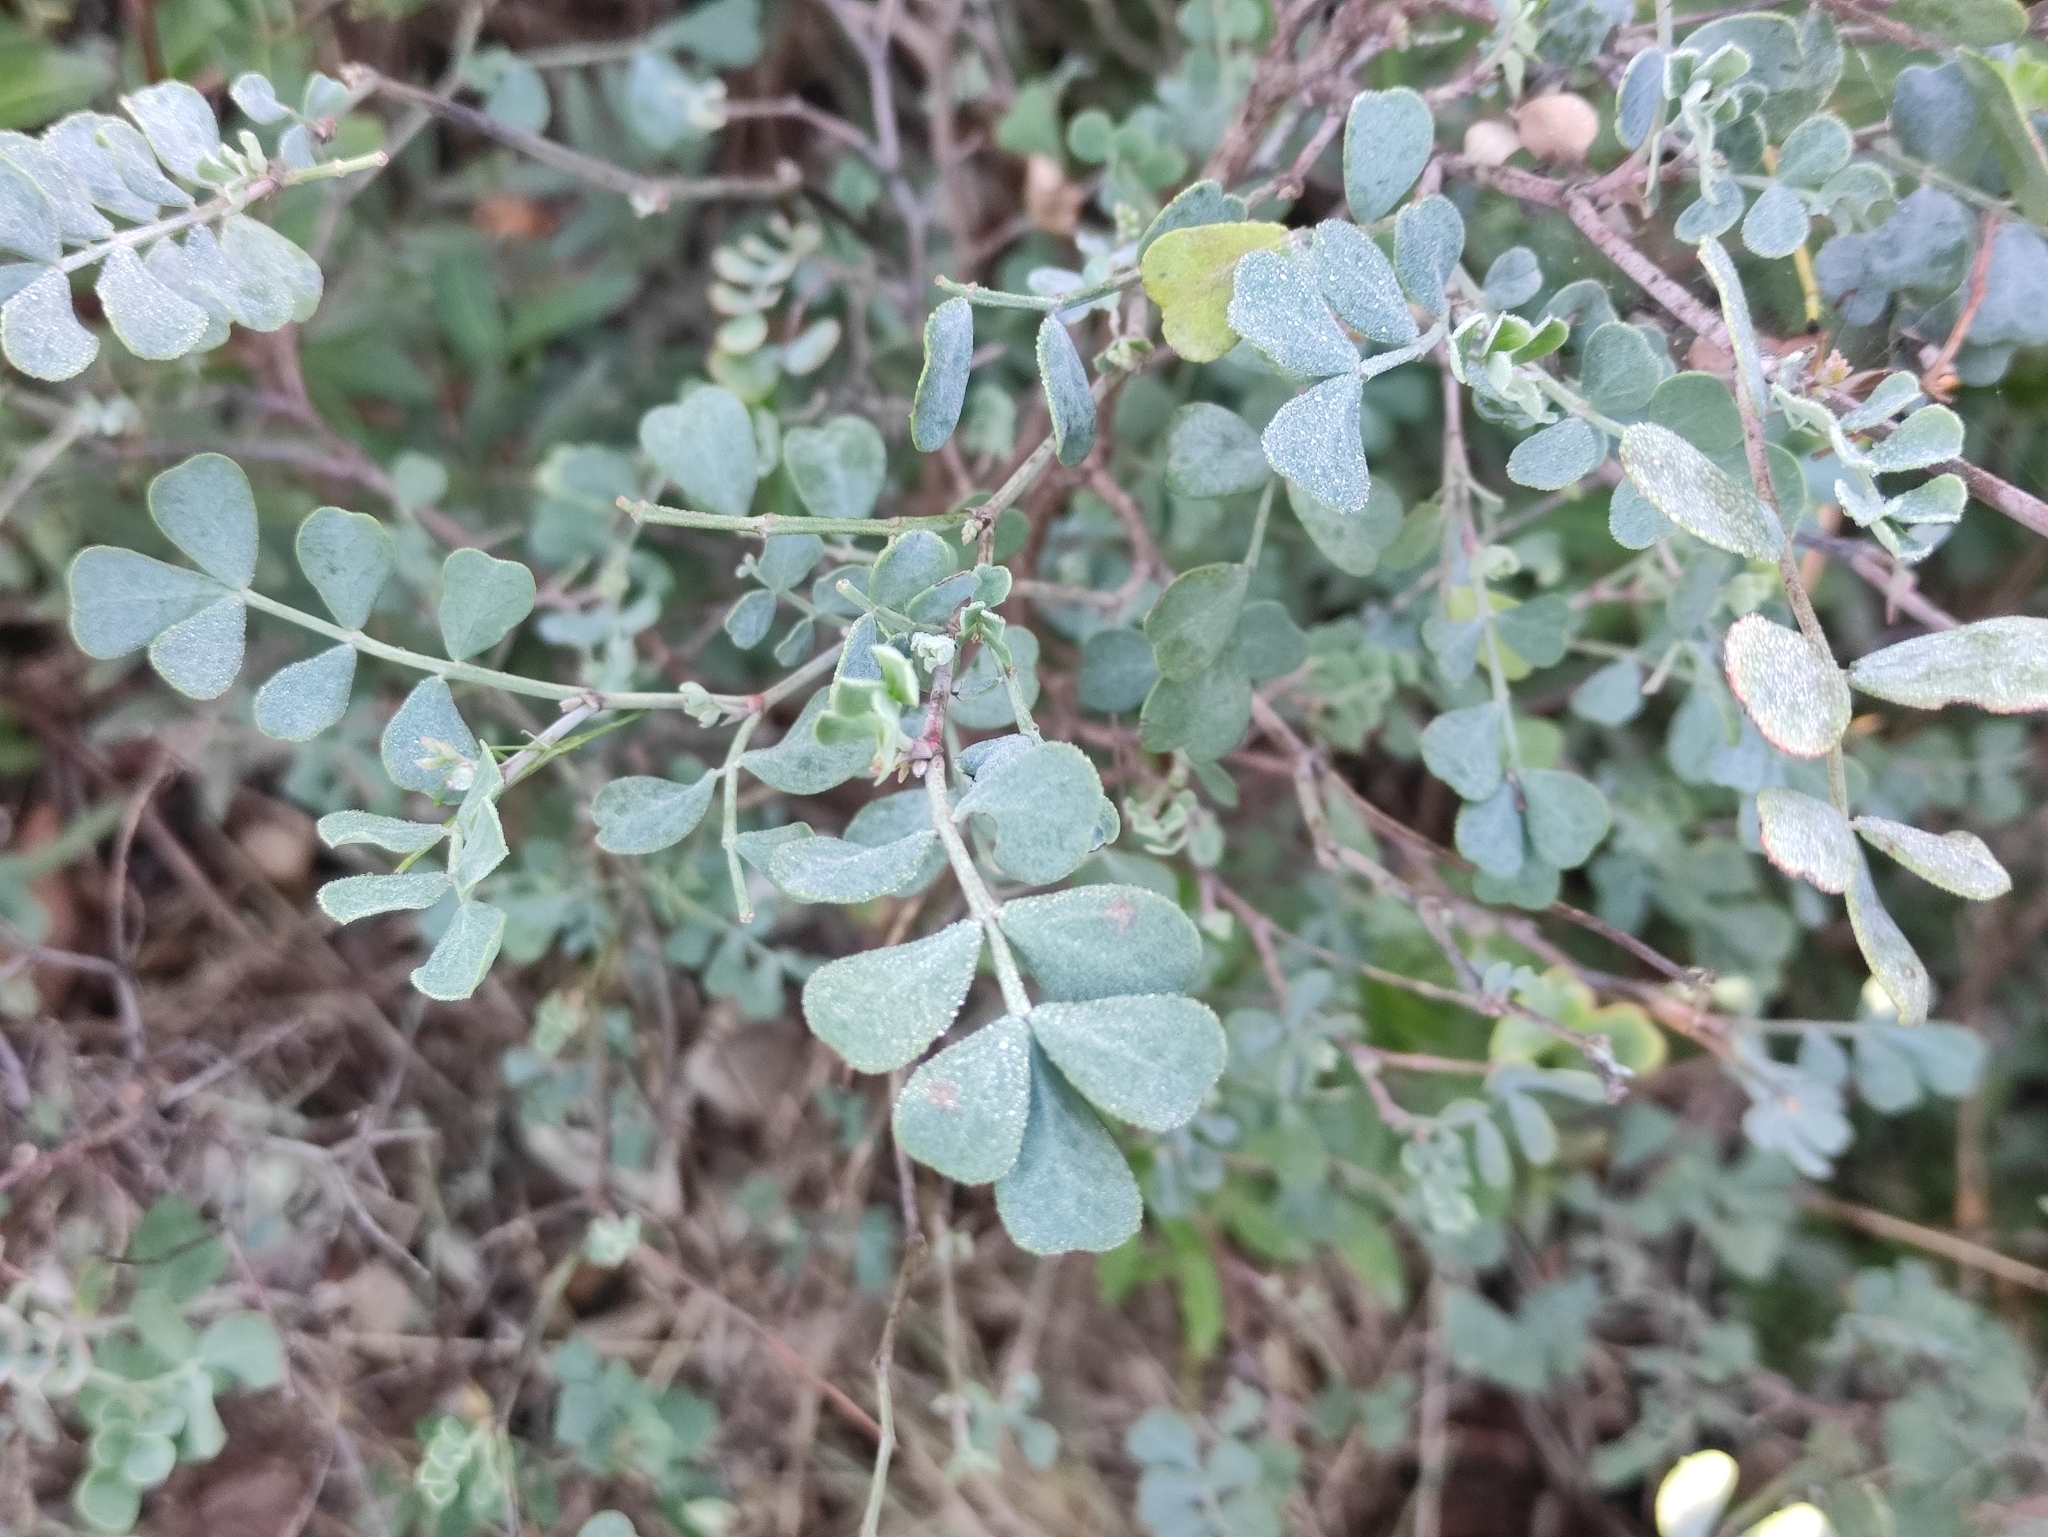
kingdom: Plantae
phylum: Tracheophyta
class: Magnoliopsida
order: Fabales
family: Fabaceae
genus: Coronilla
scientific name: Coronilla valentina
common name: Shrubby scorpion-vetch
